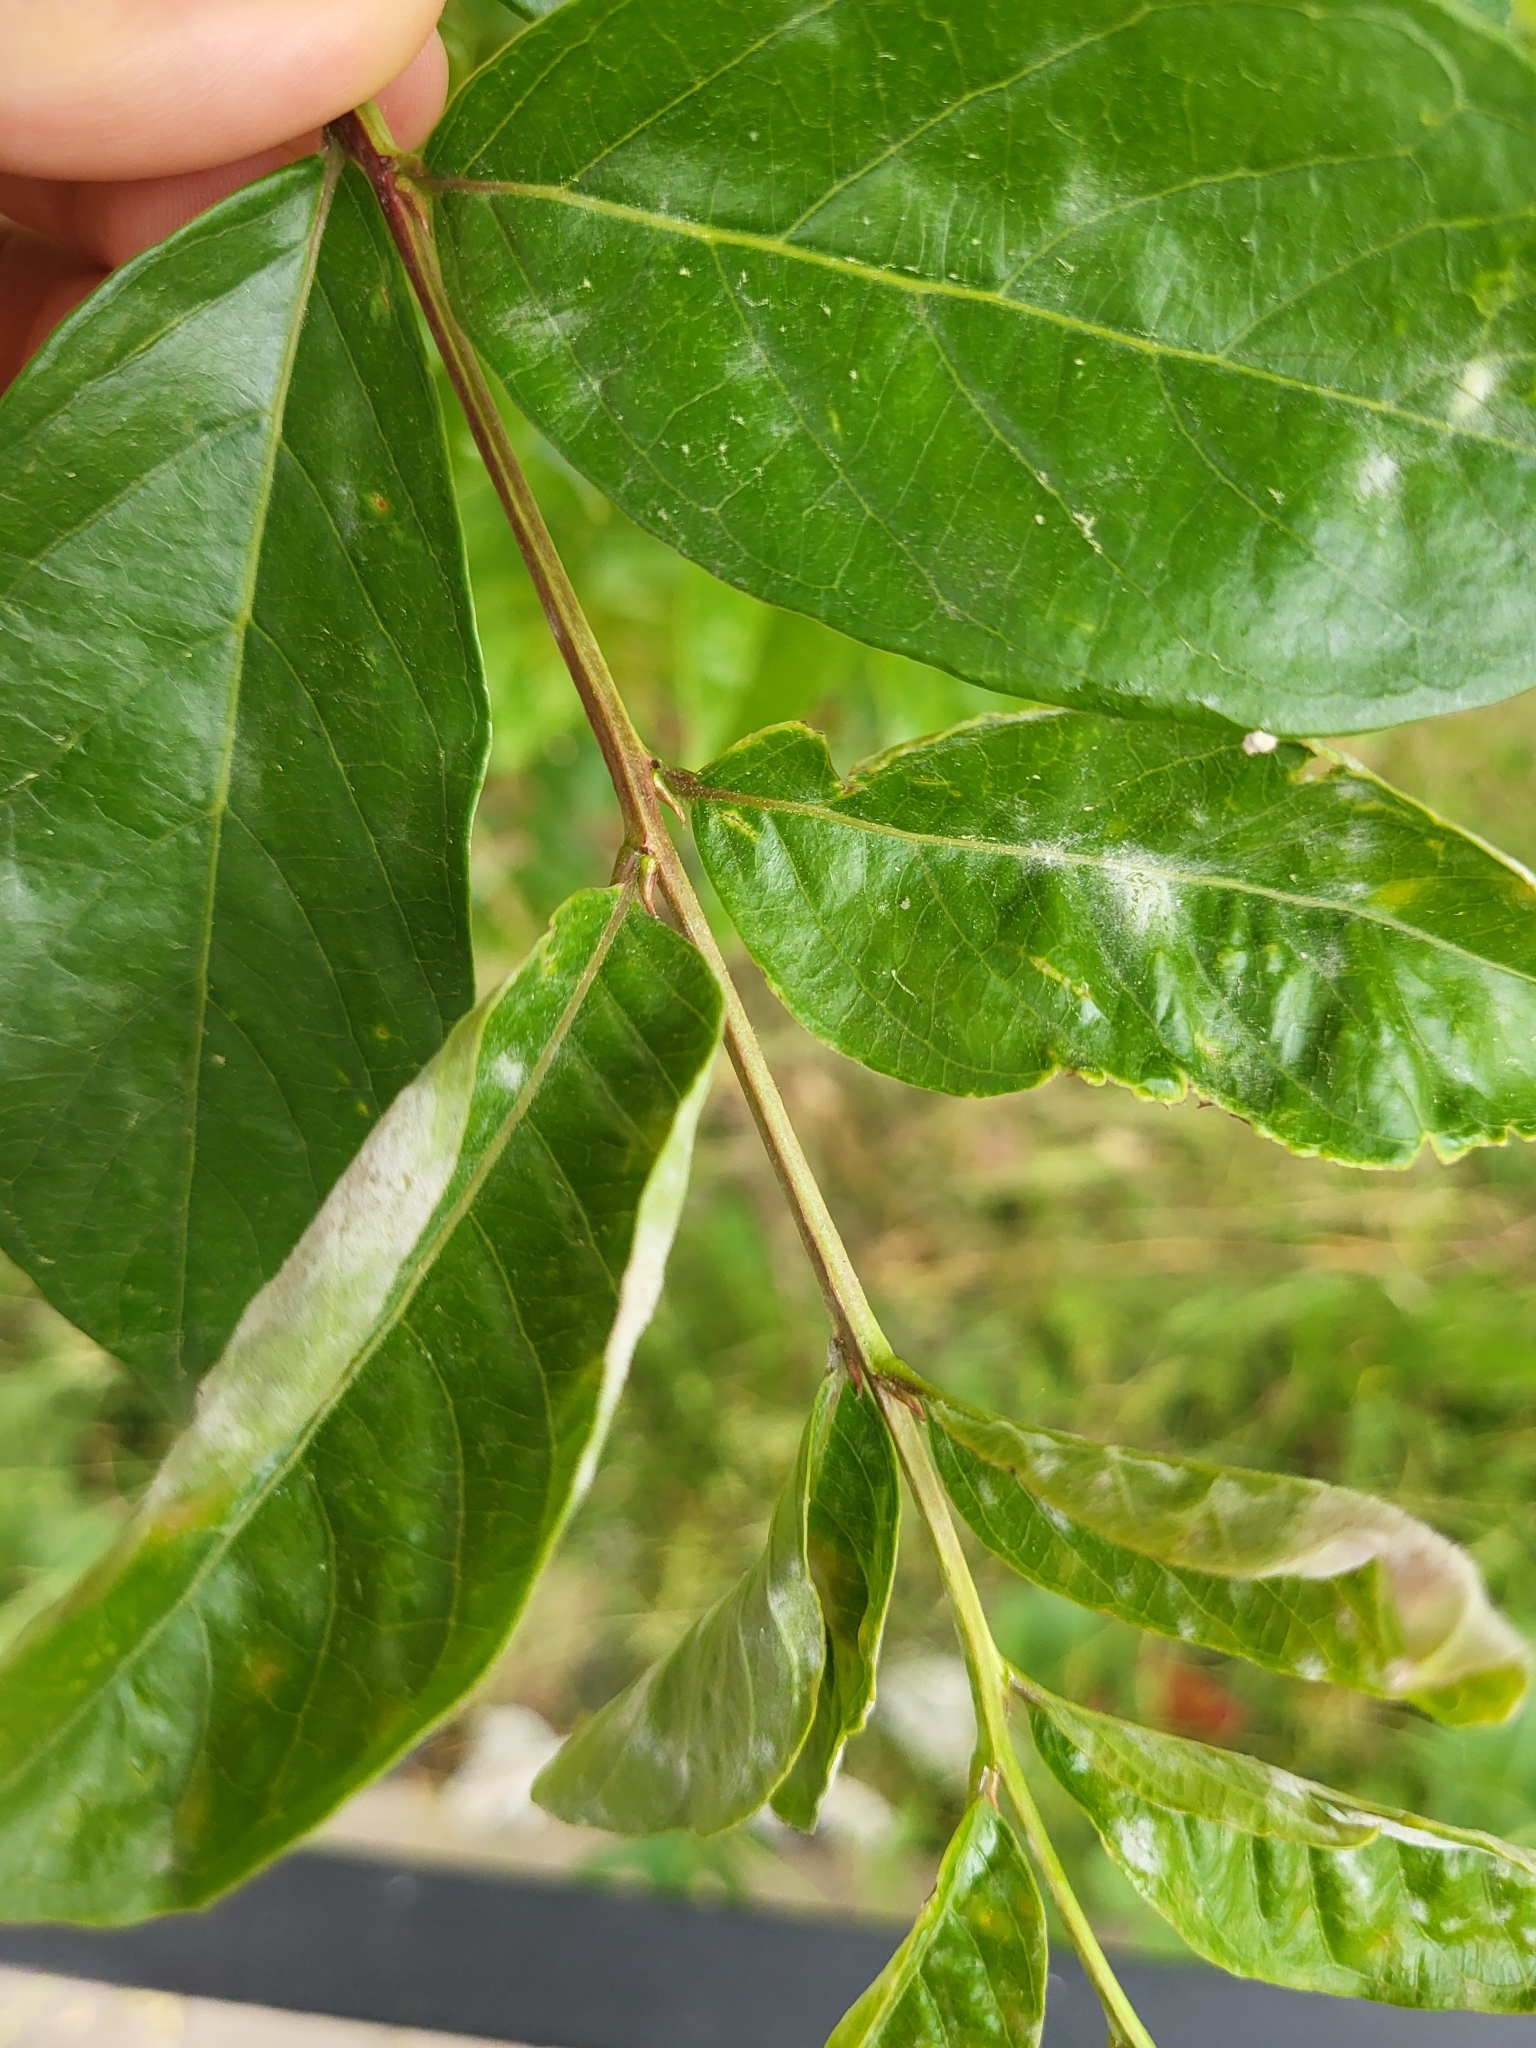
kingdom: Fungi
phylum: Ascomycota
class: Leotiomycetes
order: Helotiales
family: Erysiphaceae
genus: Erysiphe
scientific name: Erysiphe australiana
